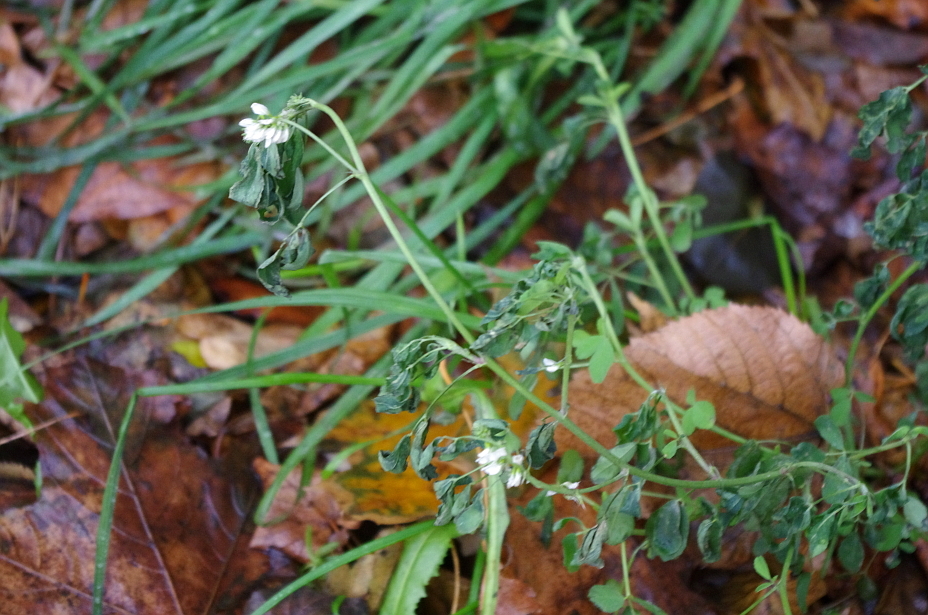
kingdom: Plantae
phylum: Tracheophyta
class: Magnoliopsida
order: Fabales
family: Fabaceae
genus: Melilotus
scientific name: Melilotus albus
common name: White melilot
